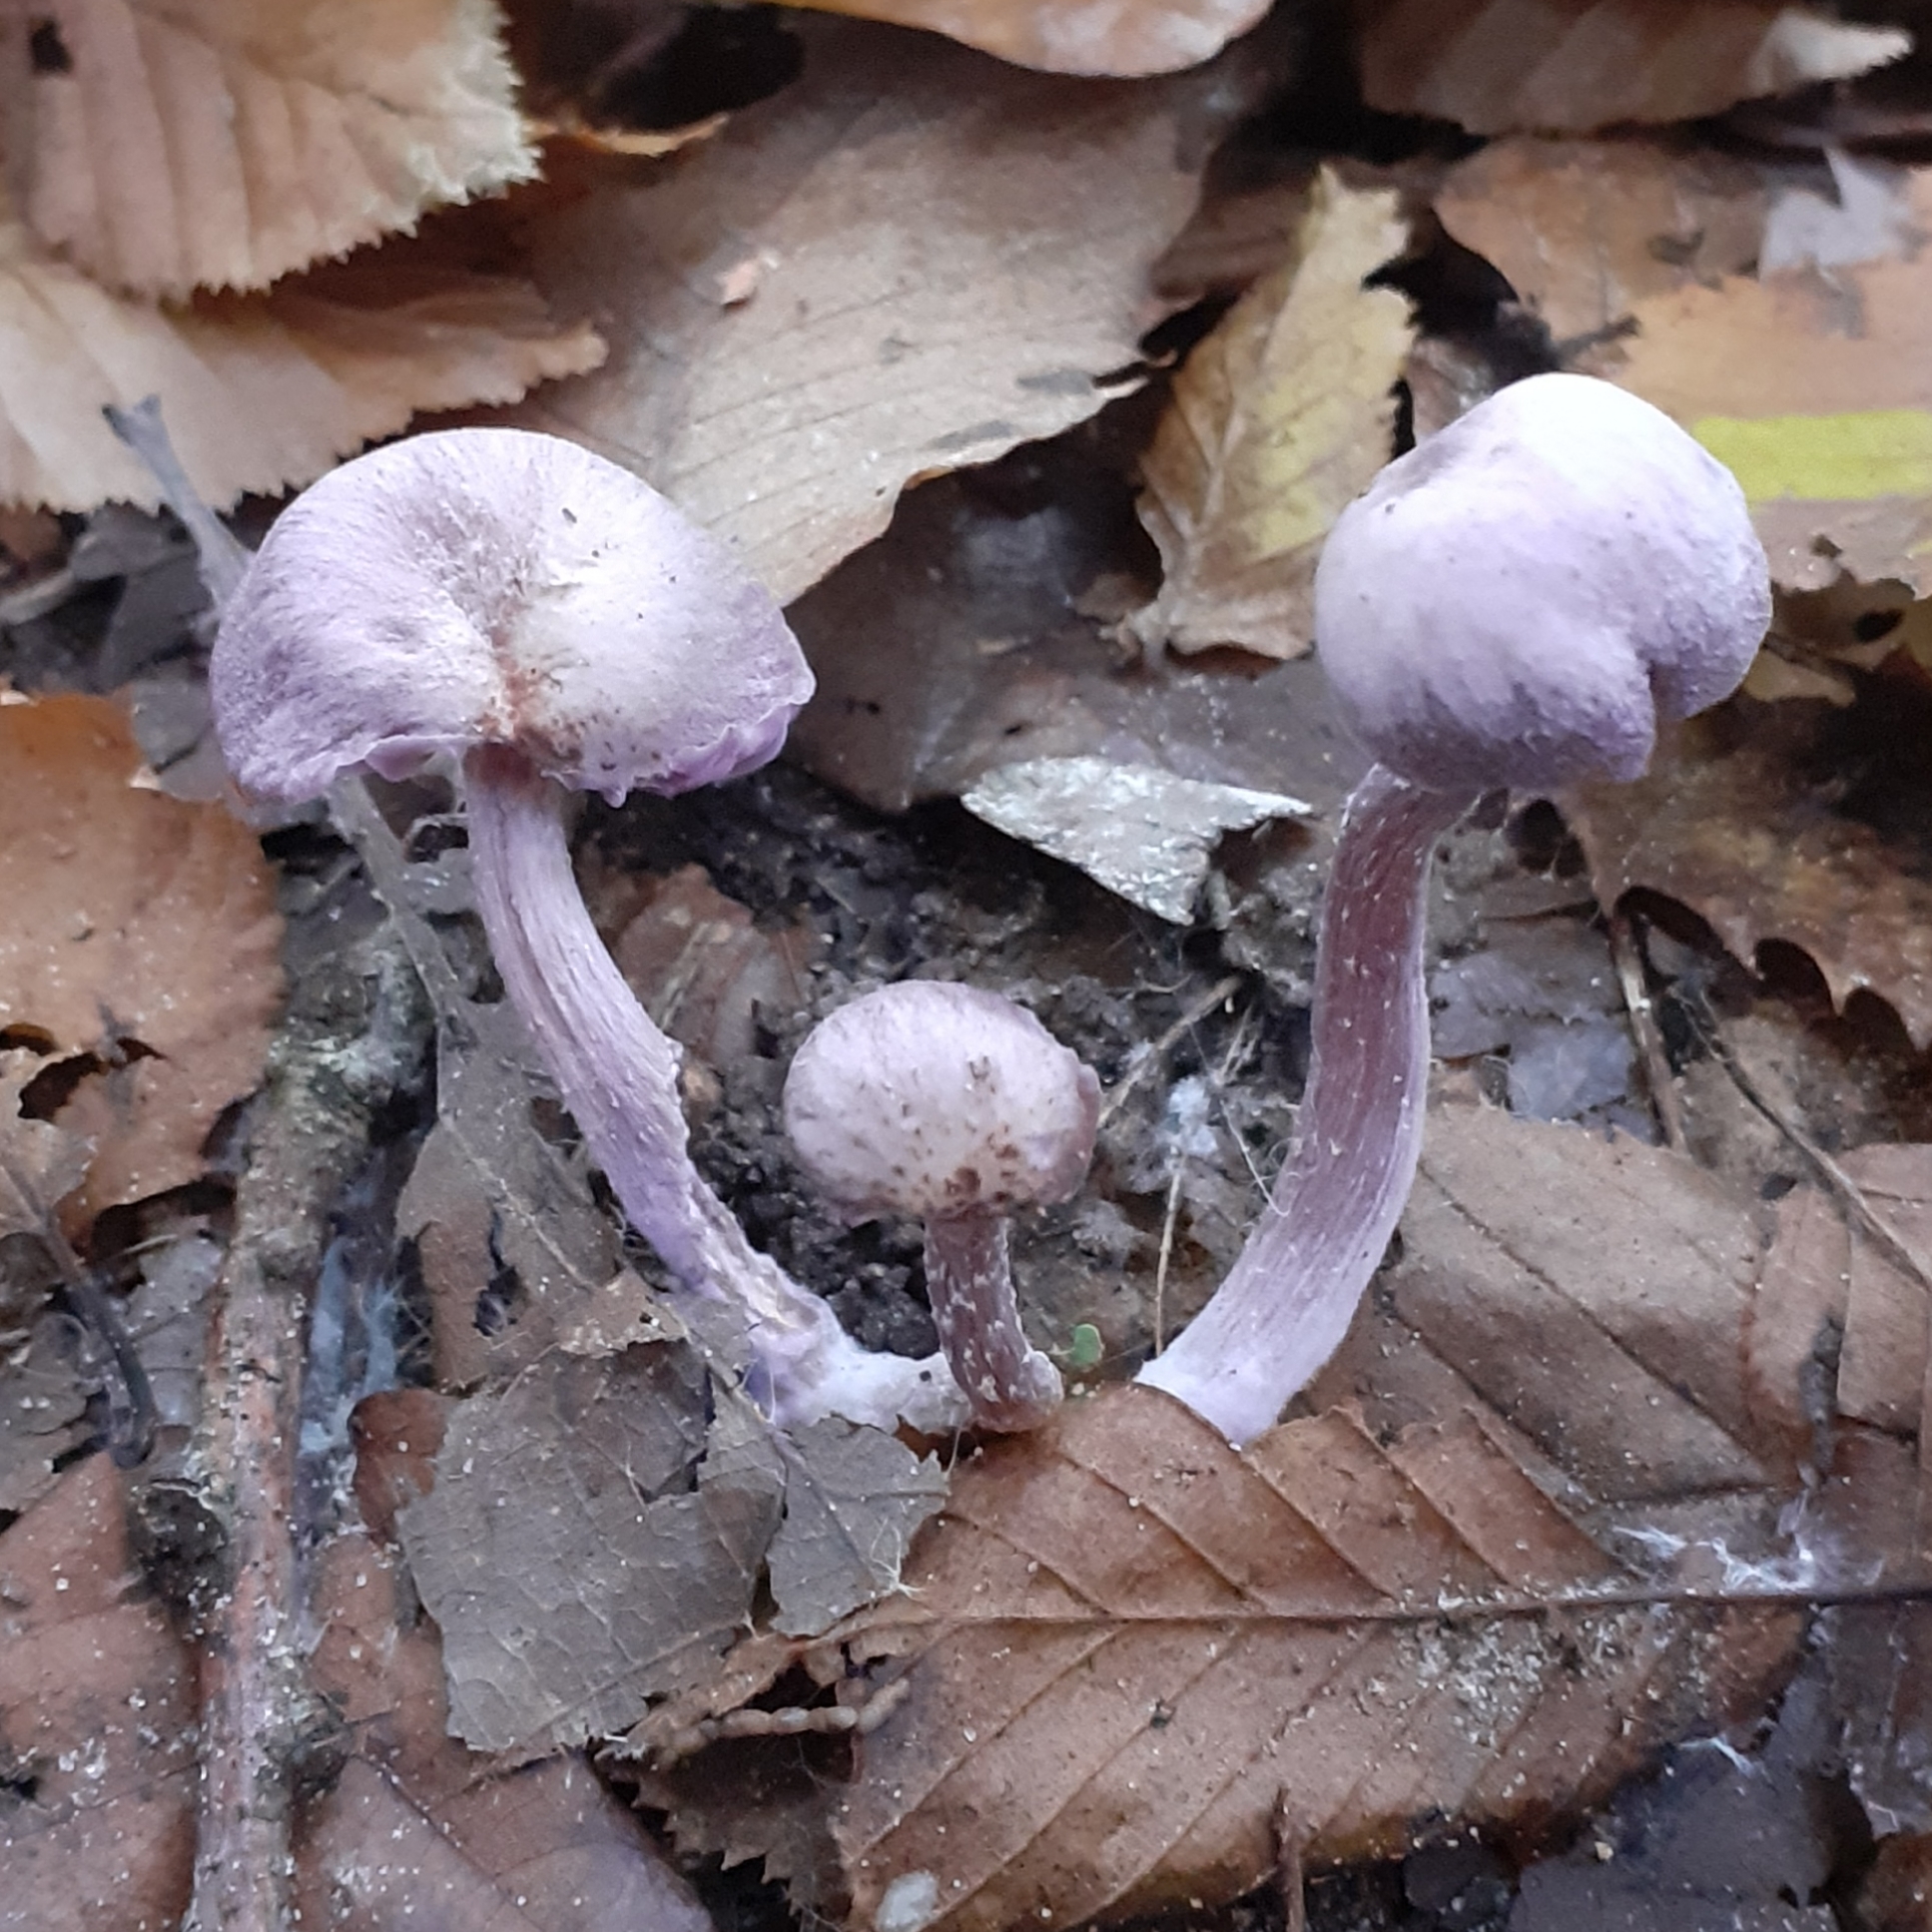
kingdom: Fungi
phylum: Basidiomycota
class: Agaricomycetes
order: Agaricales
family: Hydnangiaceae
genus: Laccaria
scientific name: Laccaria amethystina
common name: Amethyst deceiver
